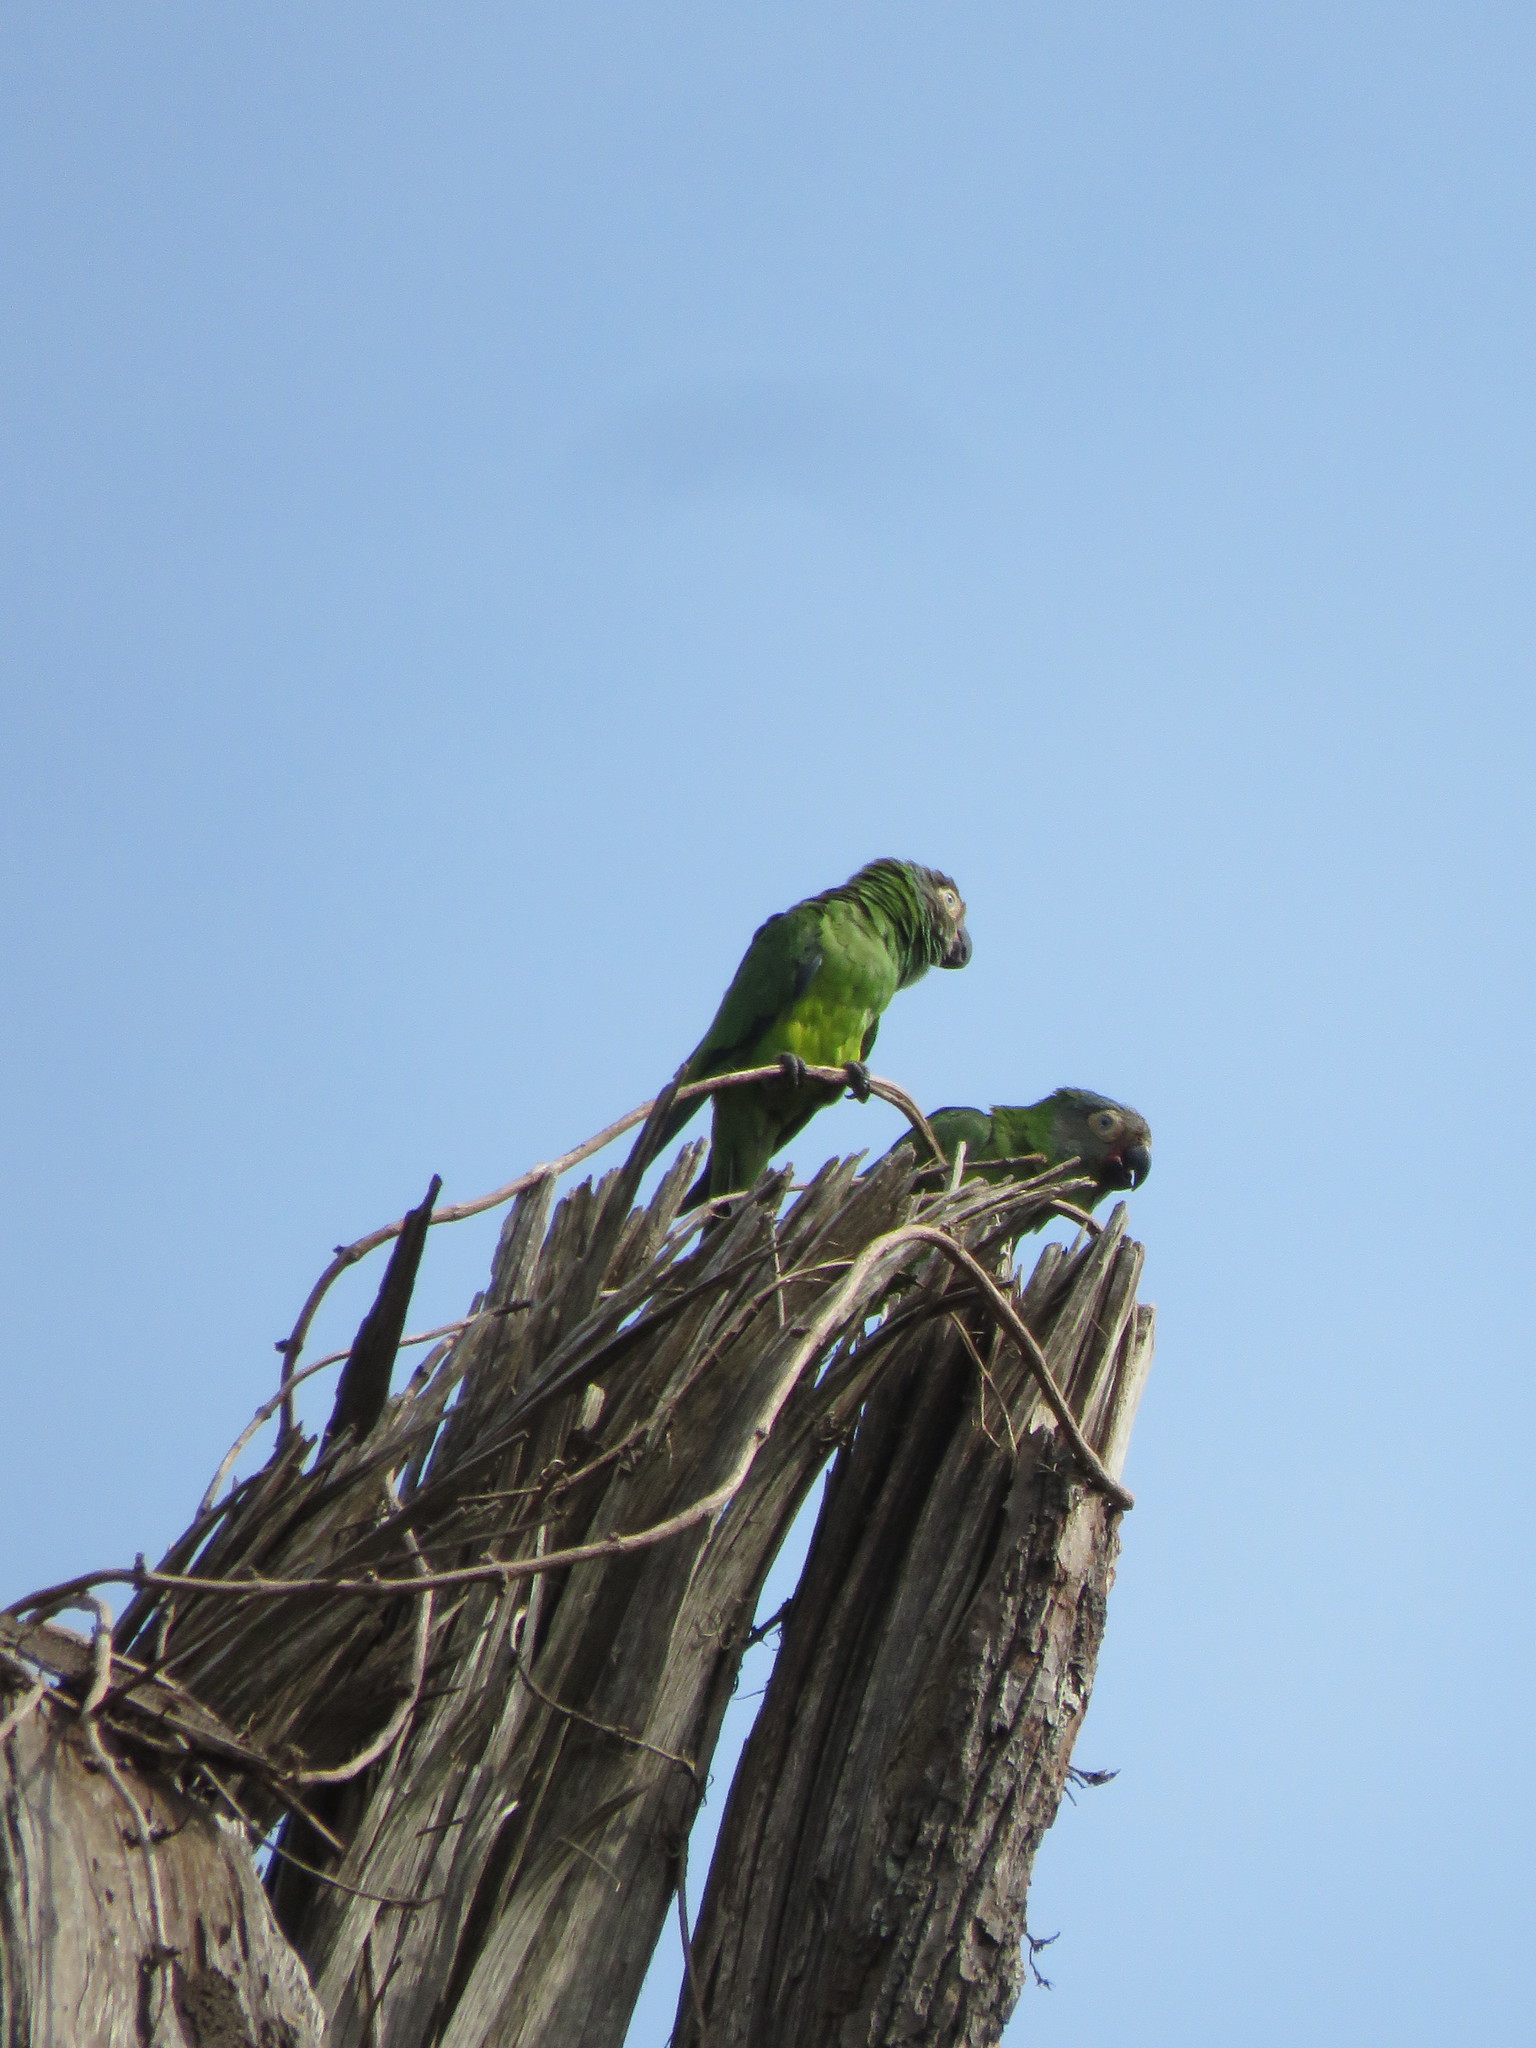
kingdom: Animalia
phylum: Chordata
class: Aves
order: Psittaciformes
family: Psittacidae
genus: Aratinga
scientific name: Aratinga weddellii
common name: Dusky-headed parakeet
